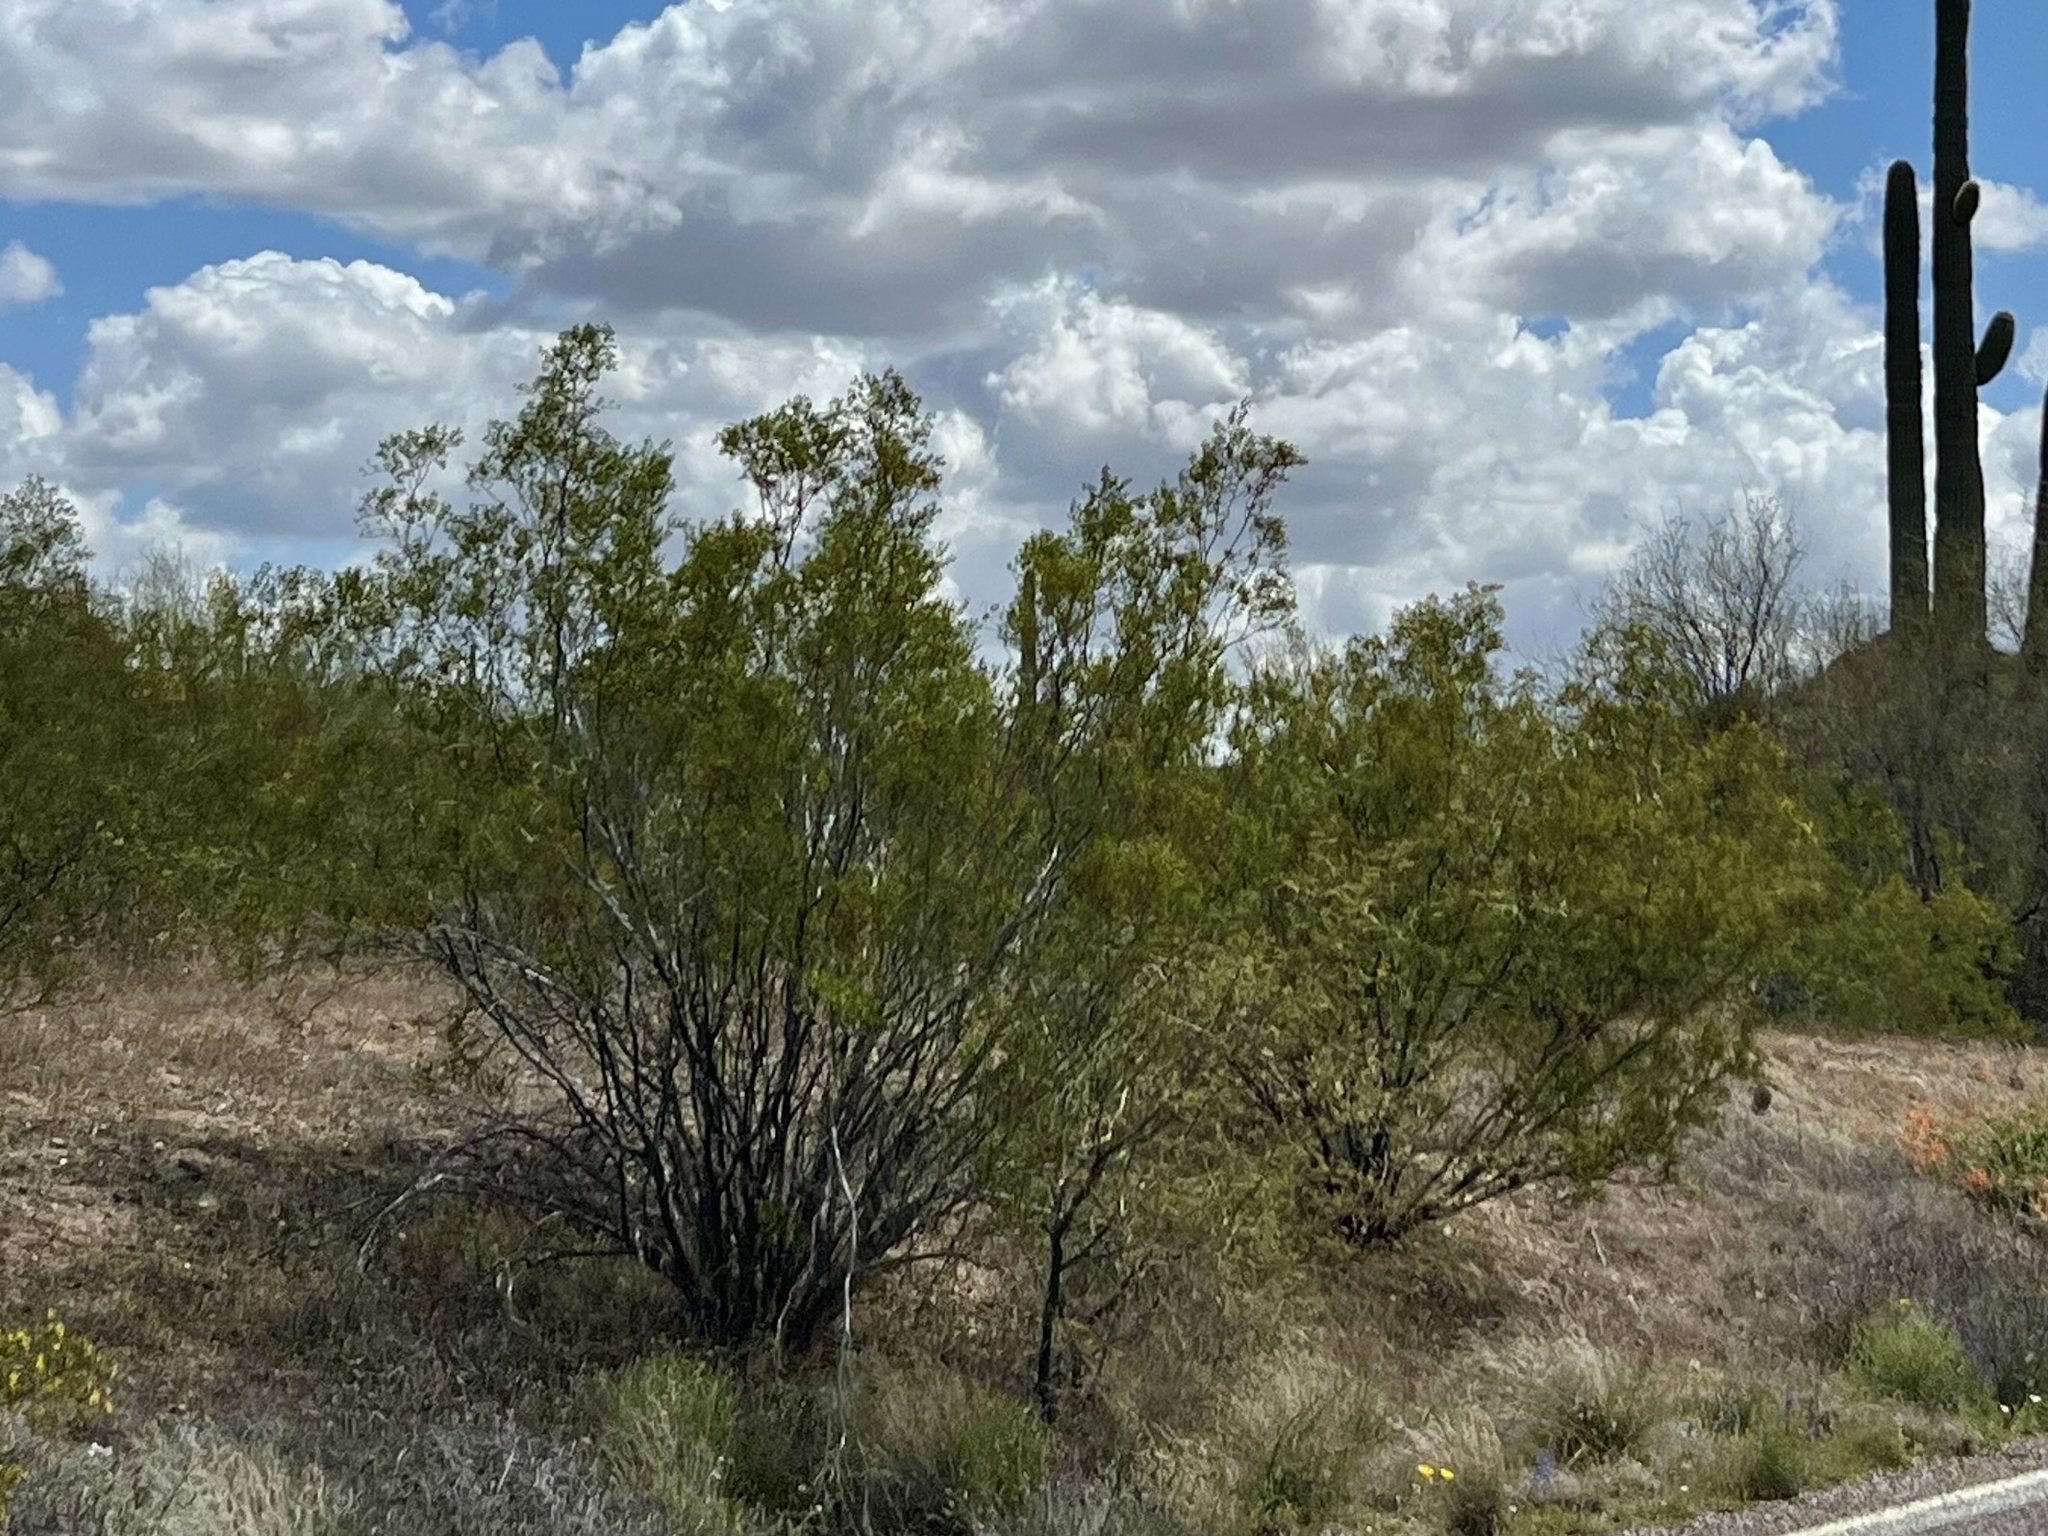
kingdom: Plantae
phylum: Tracheophyta
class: Magnoliopsida
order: Zygophyllales
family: Zygophyllaceae
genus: Larrea
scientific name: Larrea tridentata
